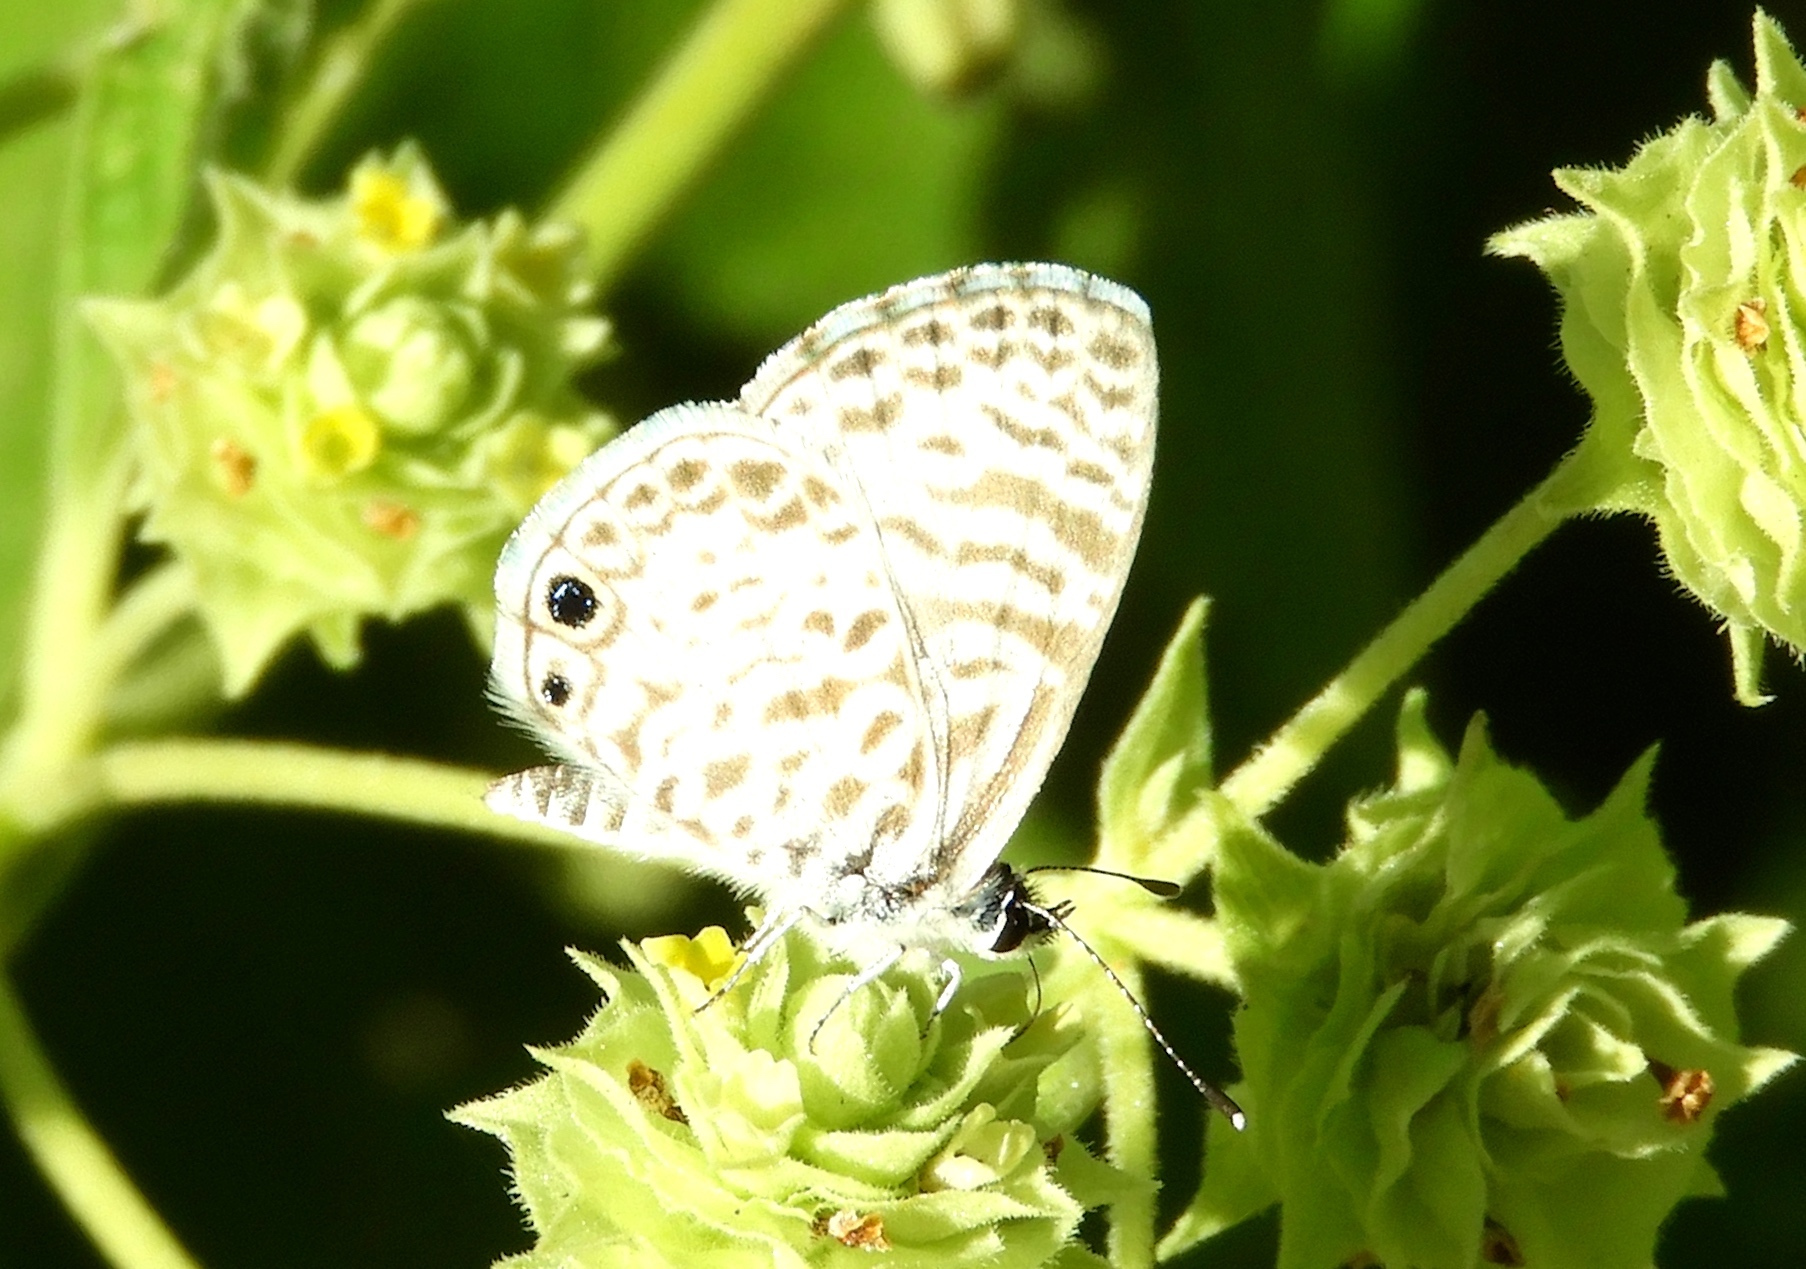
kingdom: Animalia
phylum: Arthropoda
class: Insecta
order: Lepidoptera
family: Lycaenidae
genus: Leptotes
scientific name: Leptotes cassius
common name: Cassius blue
